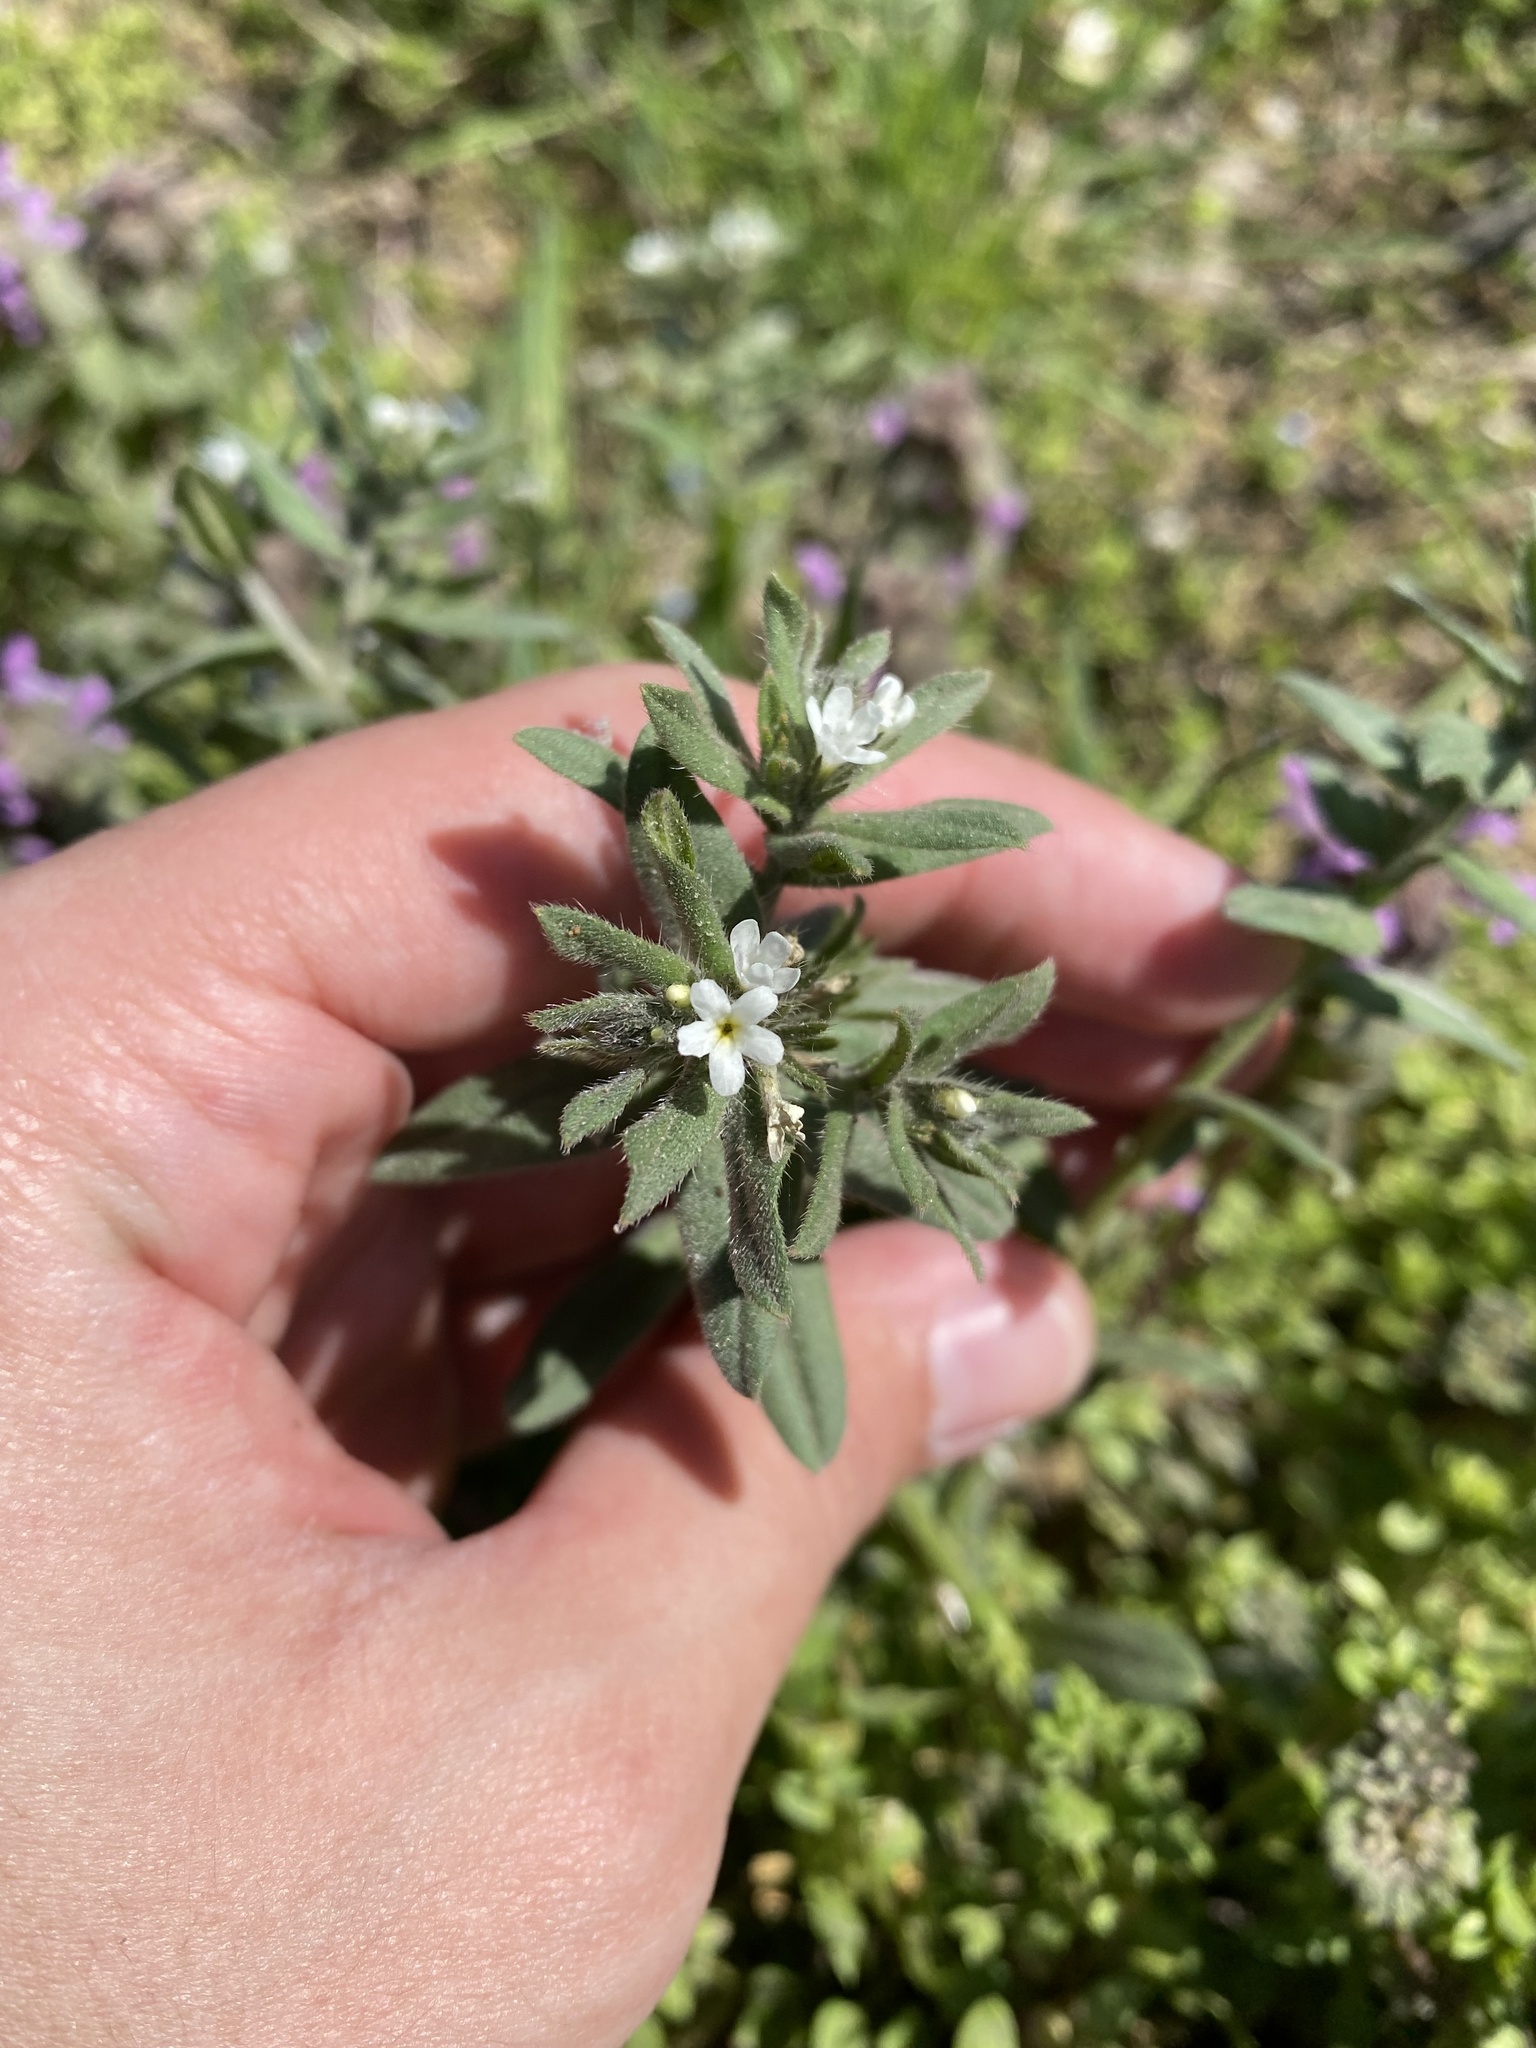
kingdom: Plantae
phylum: Tracheophyta
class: Magnoliopsida
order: Boraginales
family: Boraginaceae
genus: Buglossoides
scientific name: Buglossoides arvensis
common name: Corn gromwell
